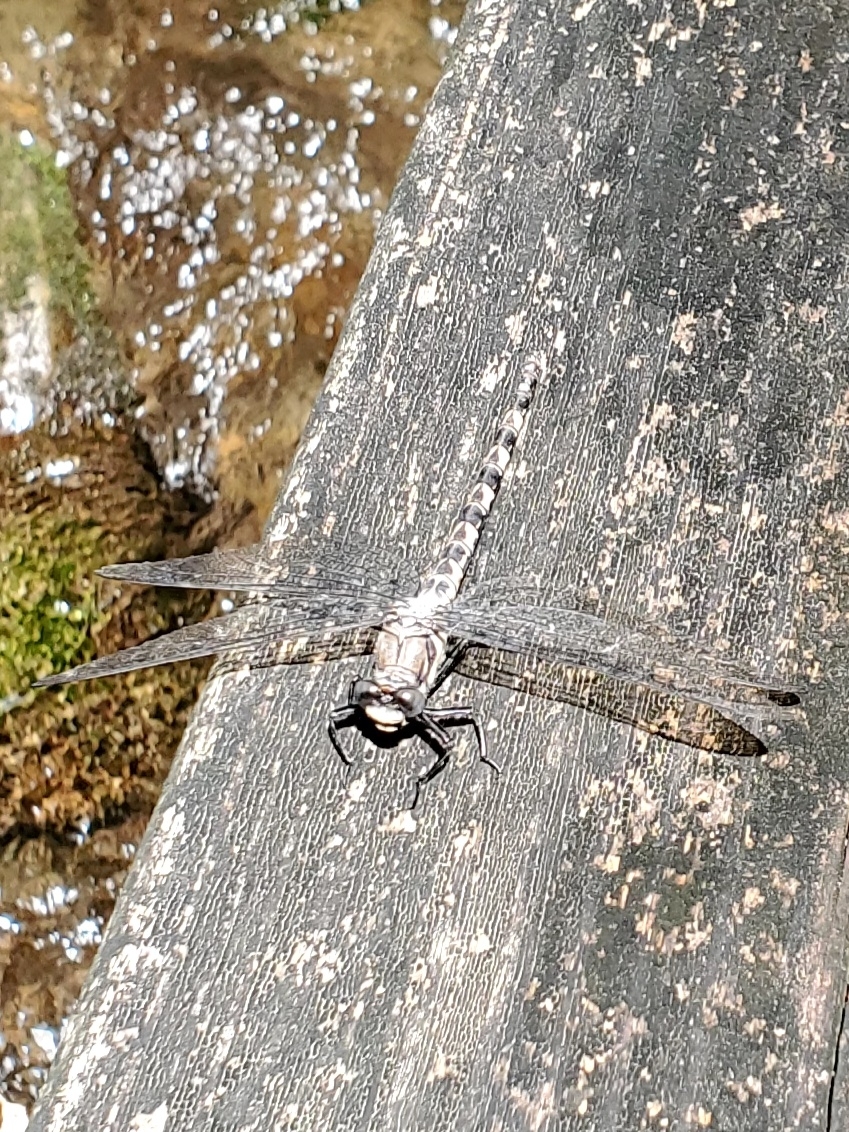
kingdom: Animalia
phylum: Arthropoda
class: Insecta
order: Odonata
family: Petaluridae
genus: Tachopteryx
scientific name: Tachopteryx thoreyi
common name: Gray petaltail
